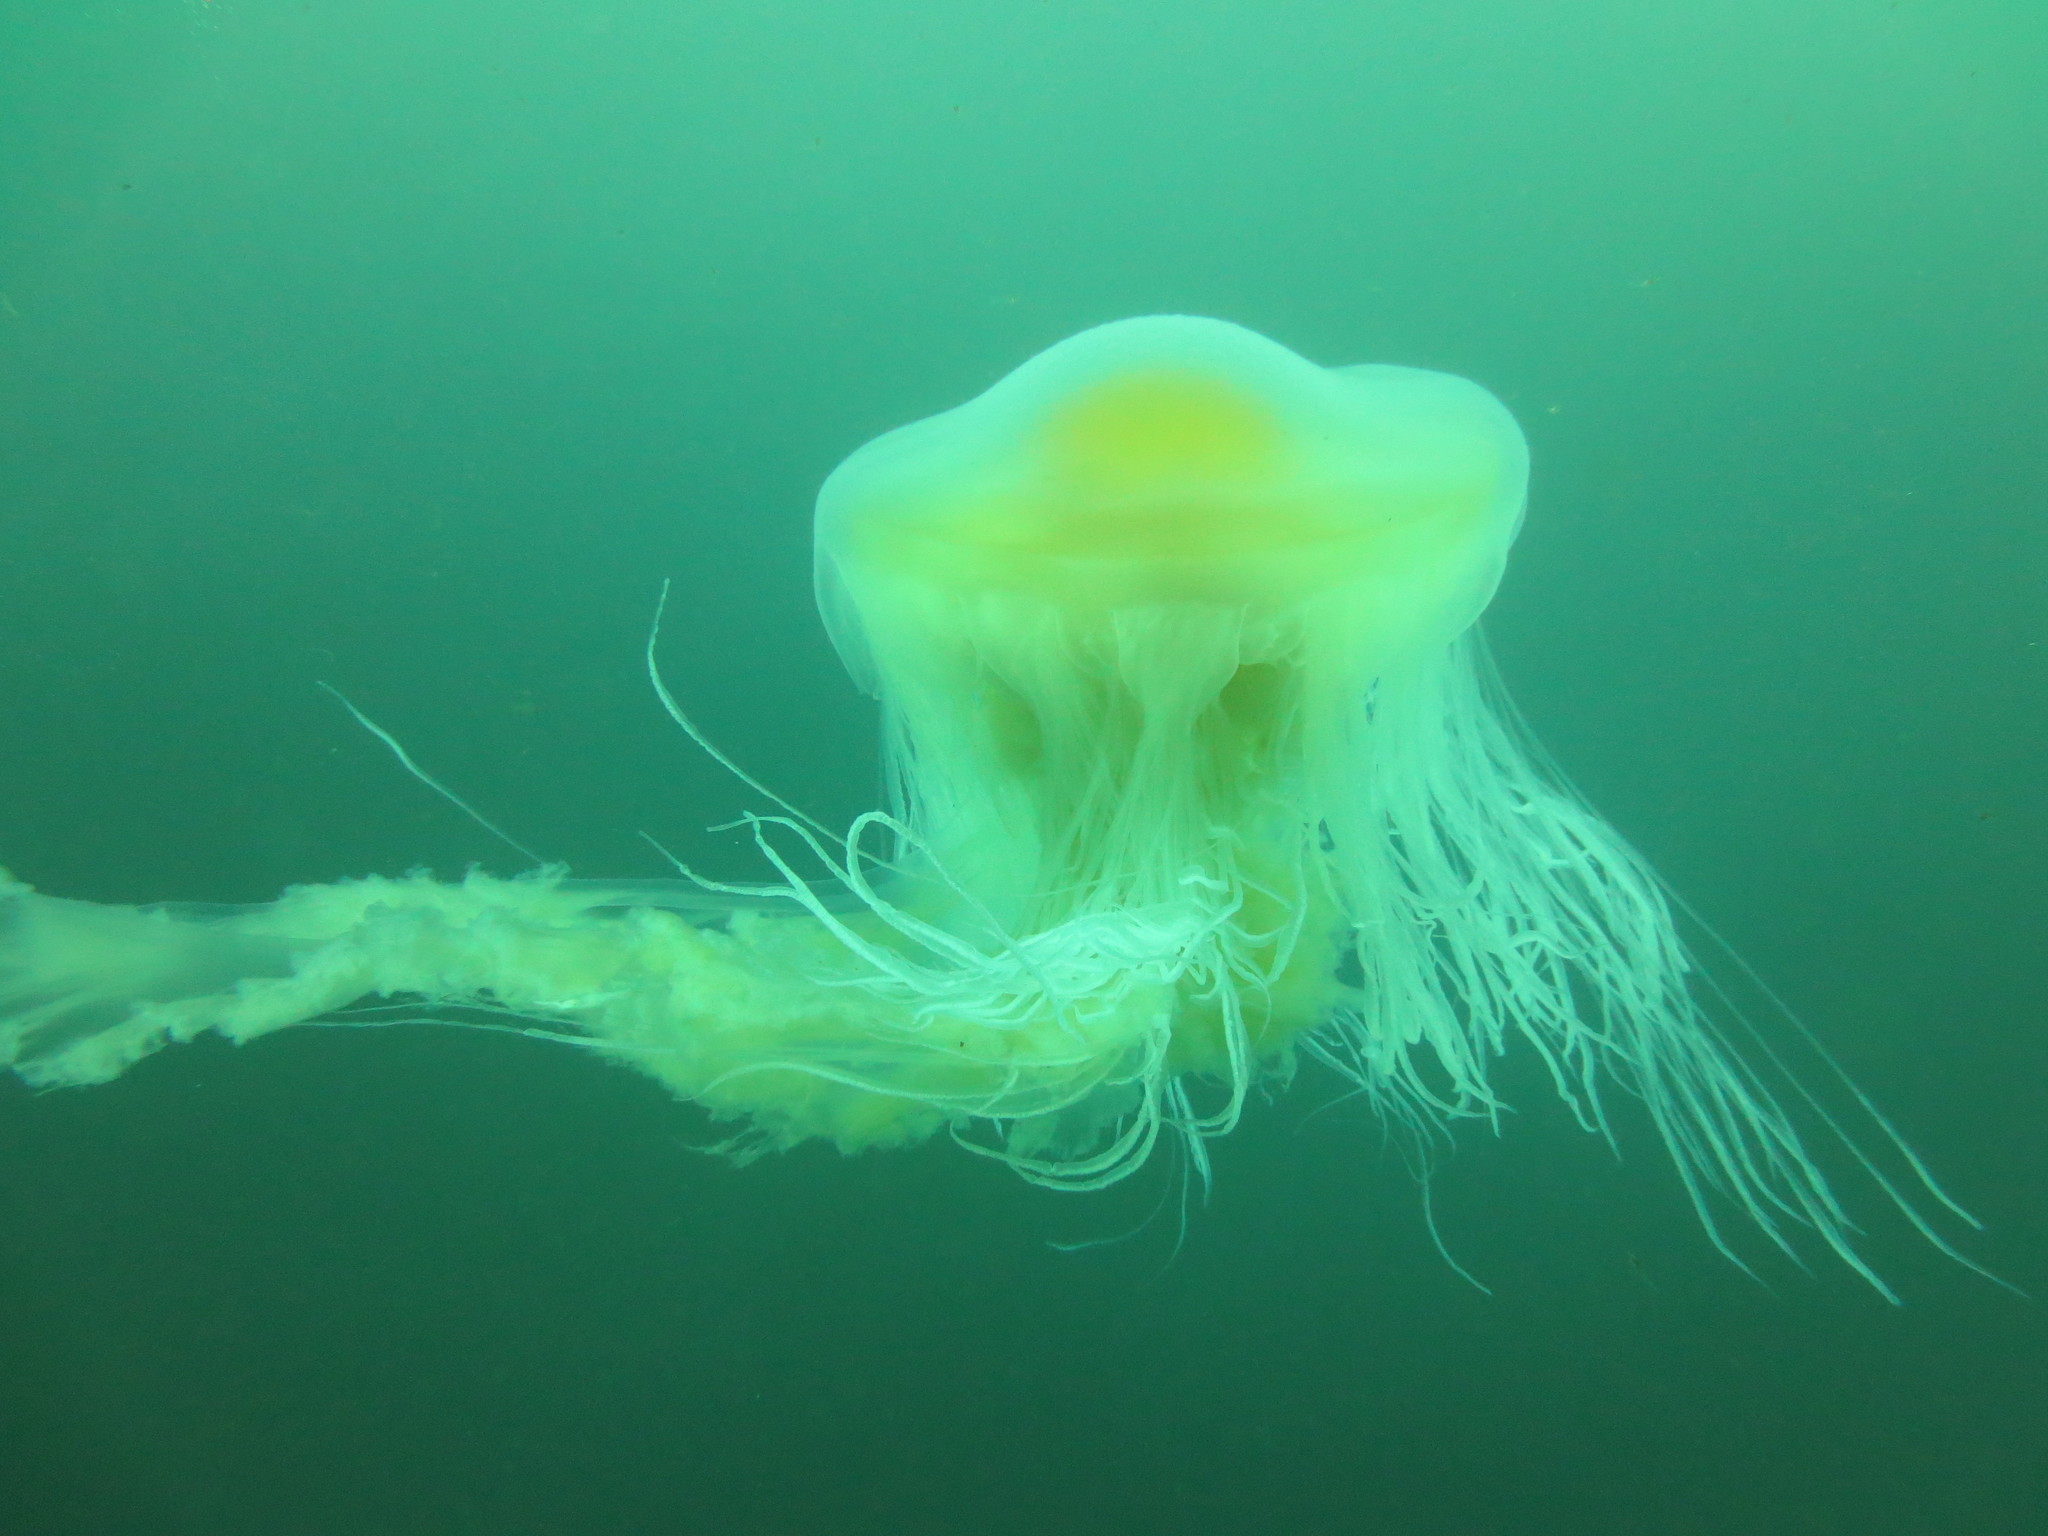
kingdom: Animalia
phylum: Cnidaria
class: Scyphozoa
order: Semaeostomeae
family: Phacellophoridae
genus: Phacellophora
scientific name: Phacellophora camtschatica
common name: Fried-egg jellyfish
